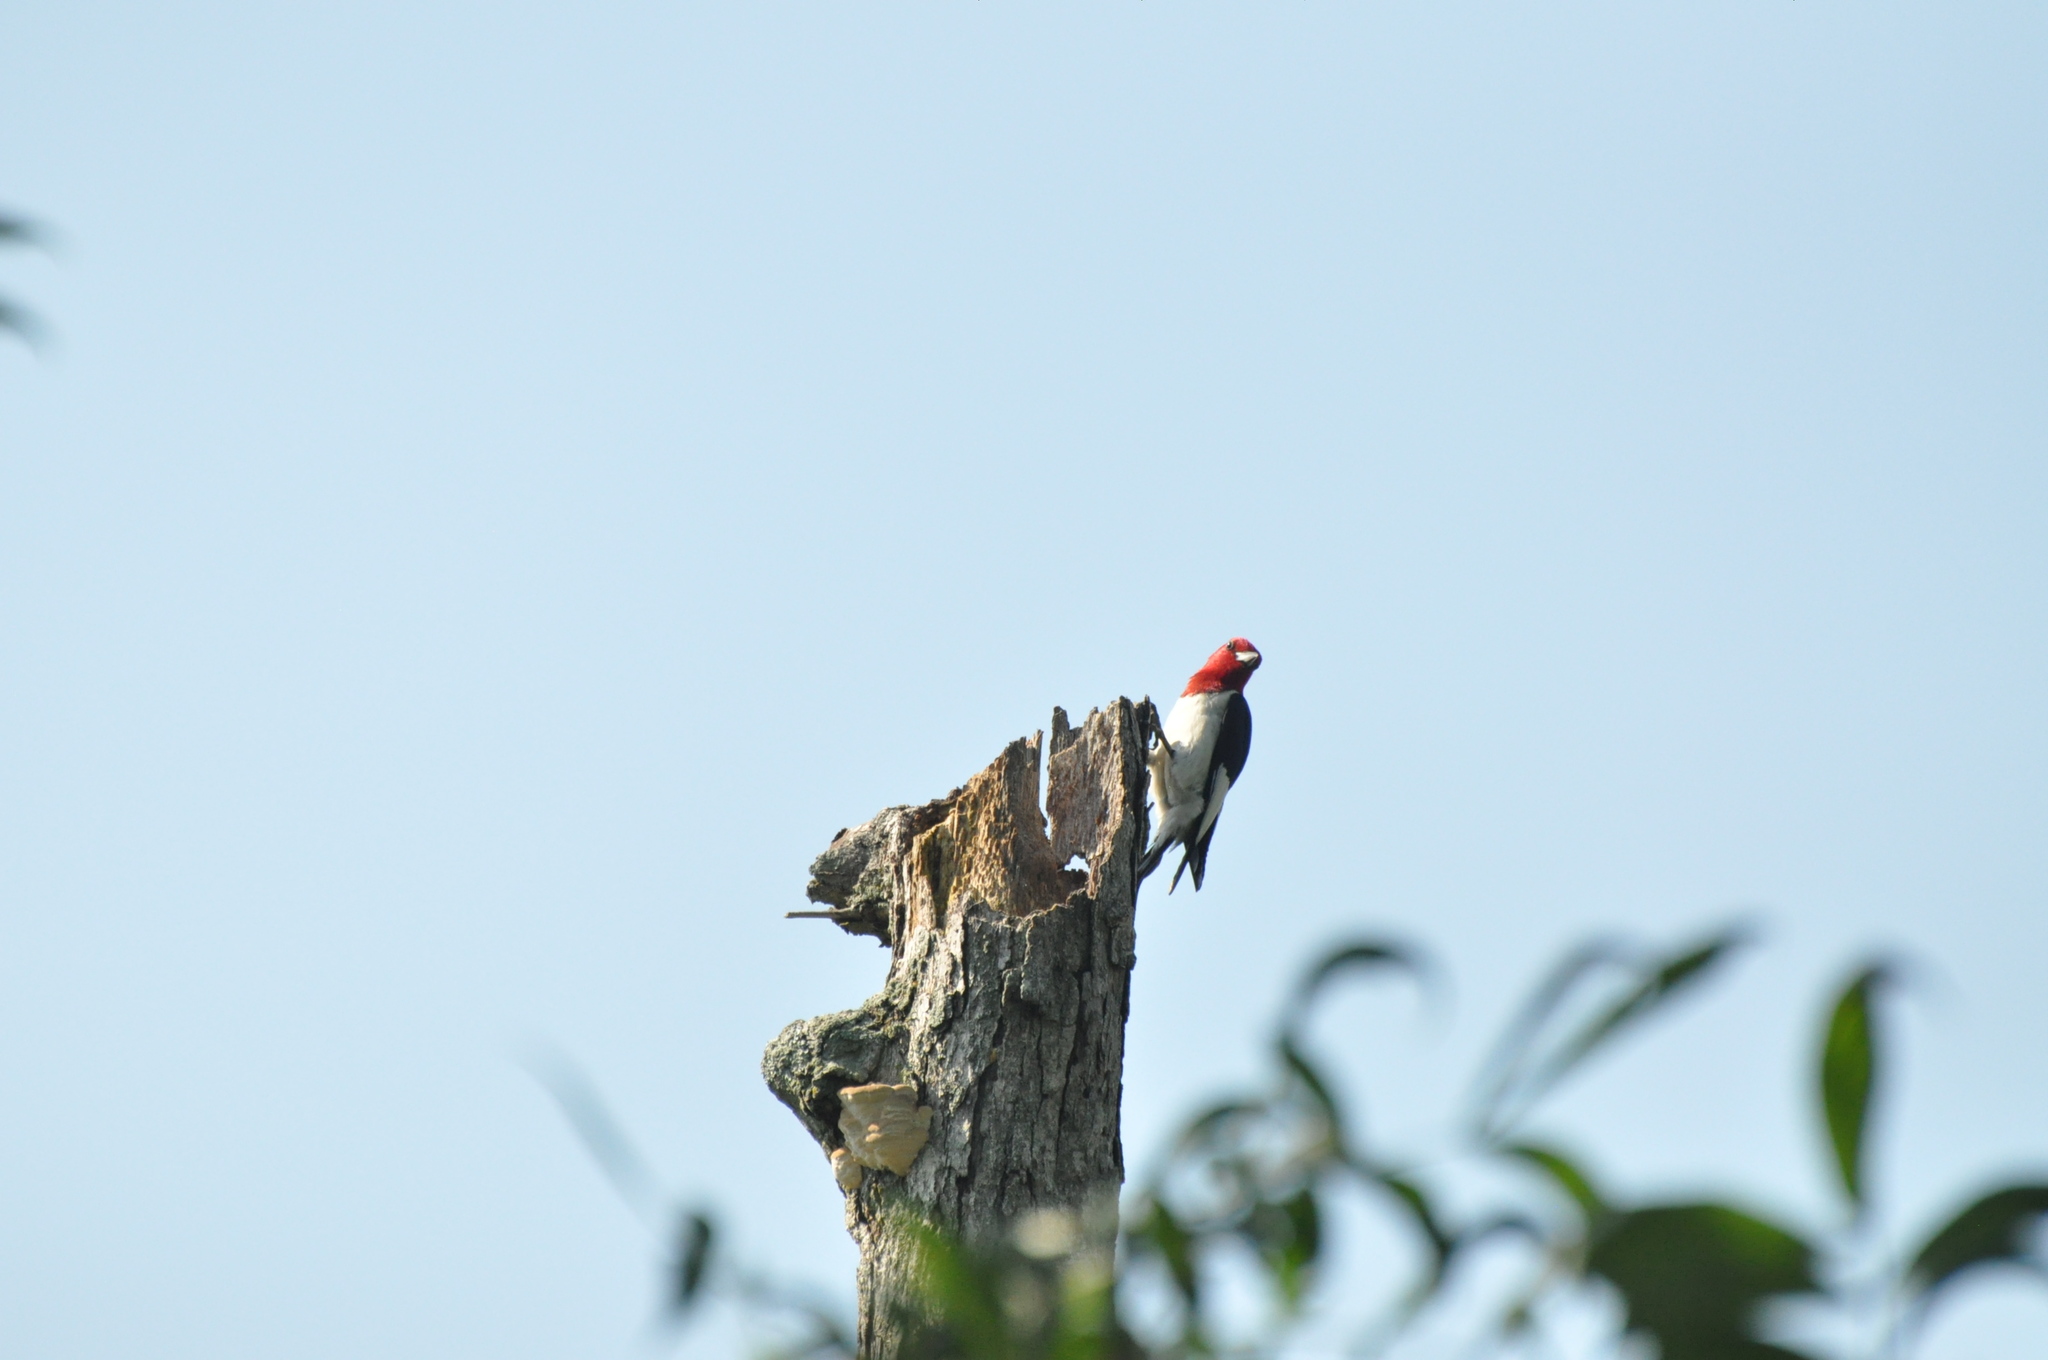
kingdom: Animalia
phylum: Chordata
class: Aves
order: Piciformes
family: Picidae
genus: Melanerpes
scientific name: Melanerpes erythrocephalus
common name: Red-headed woodpecker
